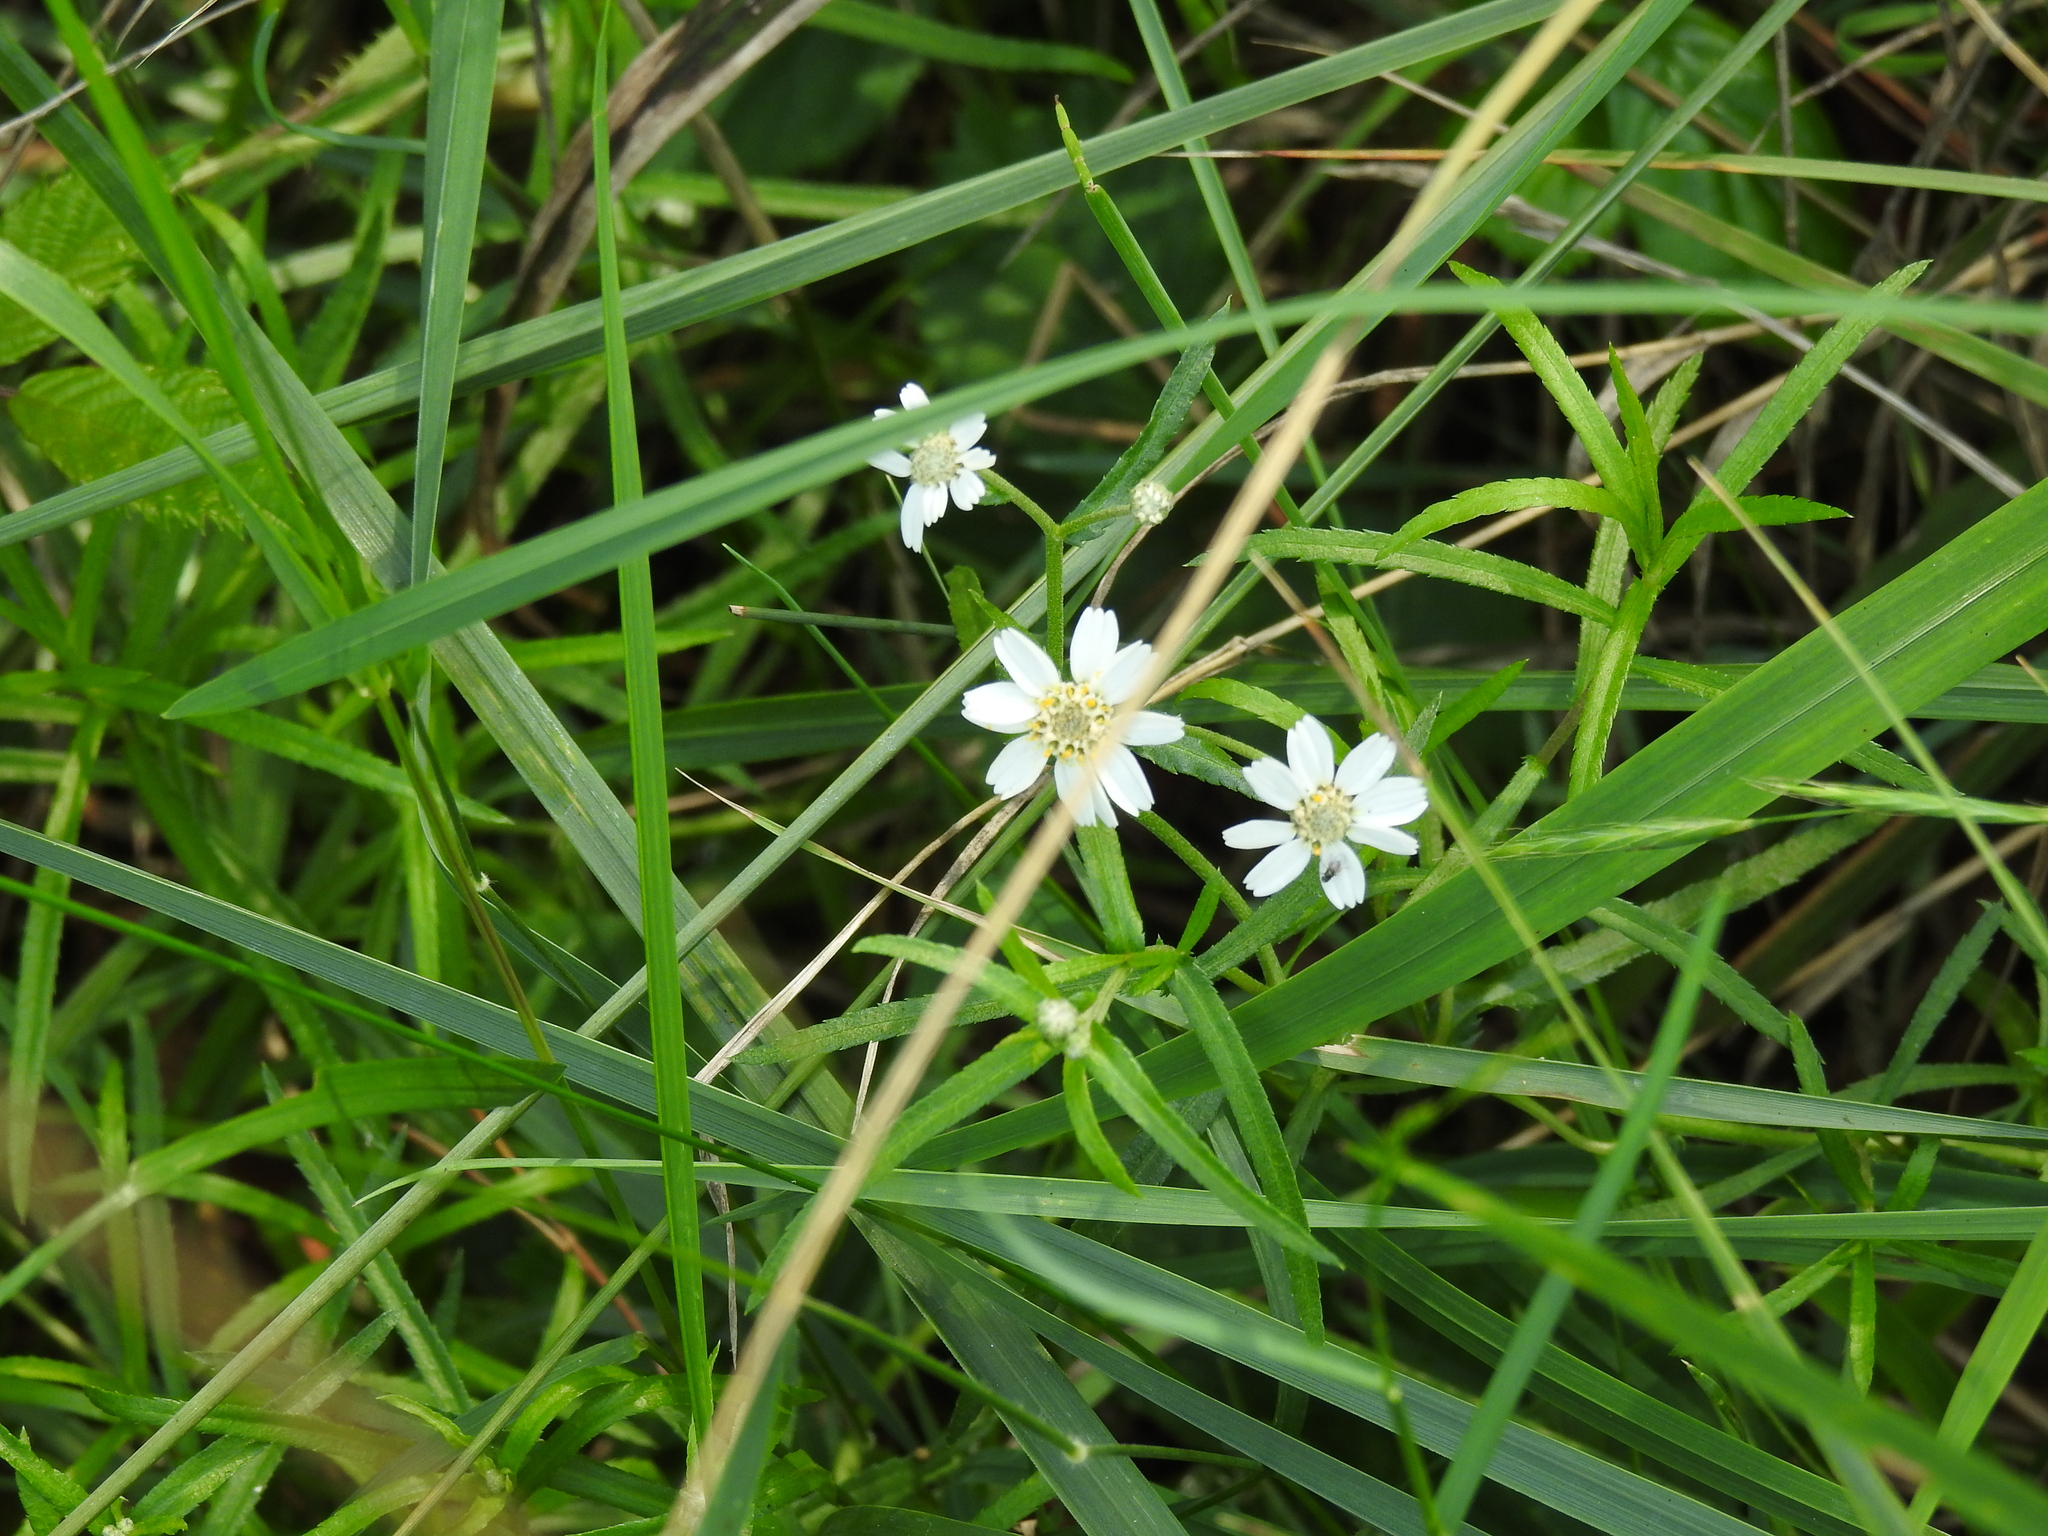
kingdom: Plantae
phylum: Tracheophyta
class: Magnoliopsida
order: Asterales
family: Asteraceae
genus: Achillea
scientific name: Achillea ptarmica
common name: Sneezeweed
